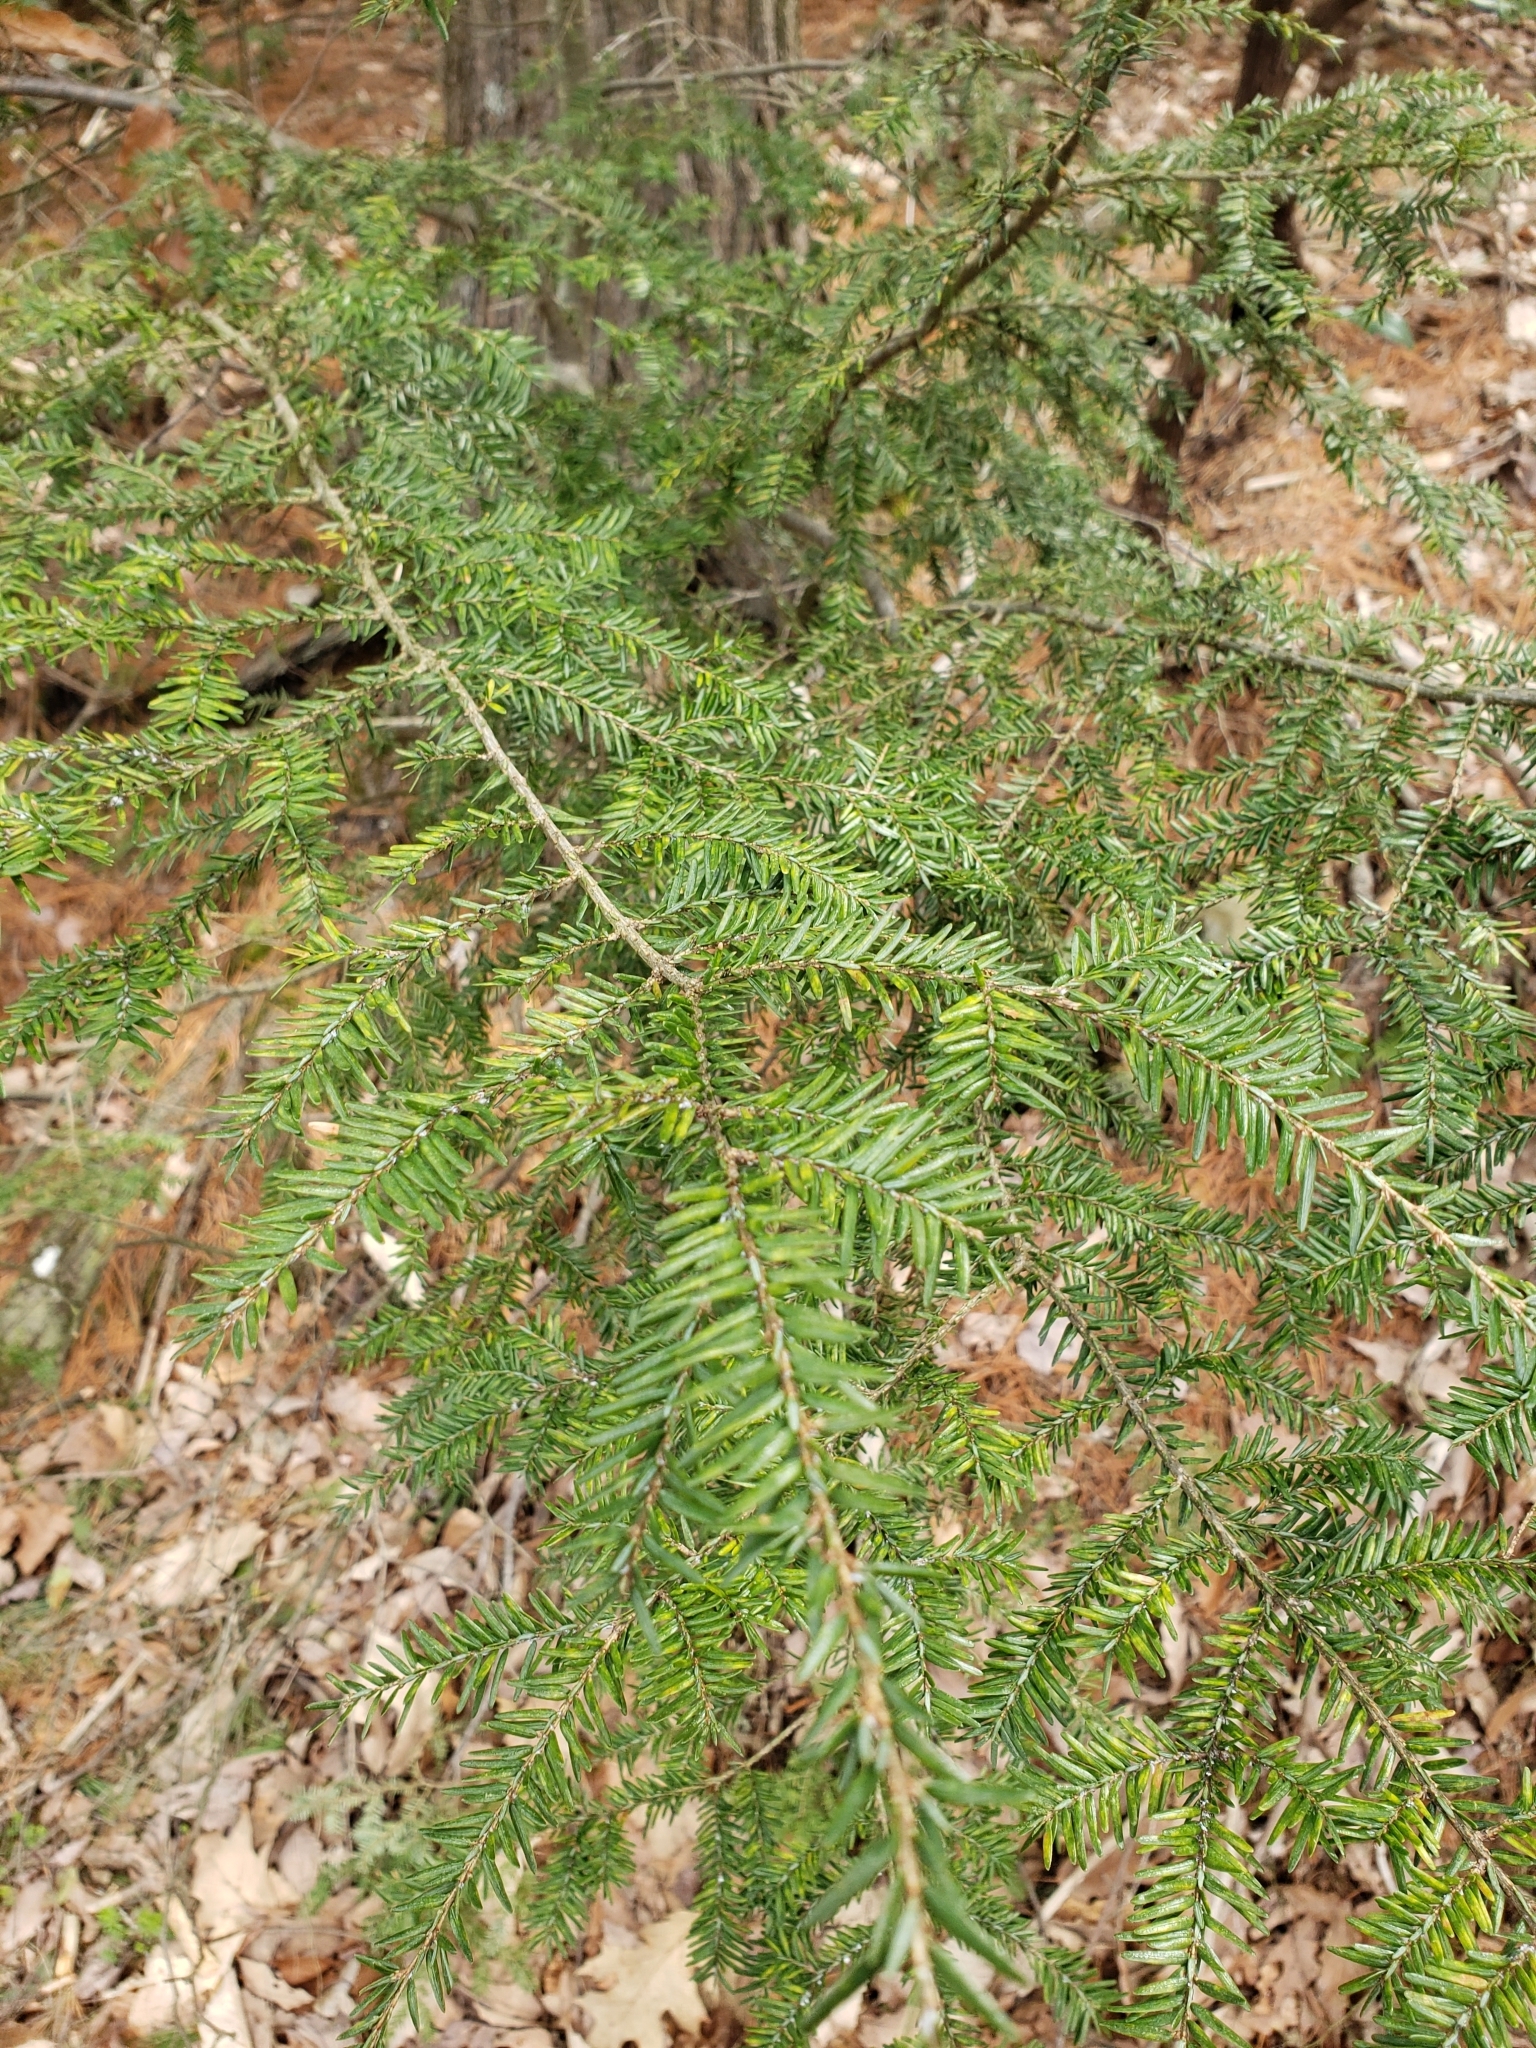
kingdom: Plantae
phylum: Tracheophyta
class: Pinopsida
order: Pinales
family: Pinaceae
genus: Tsuga
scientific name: Tsuga canadensis
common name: Eastern hemlock
